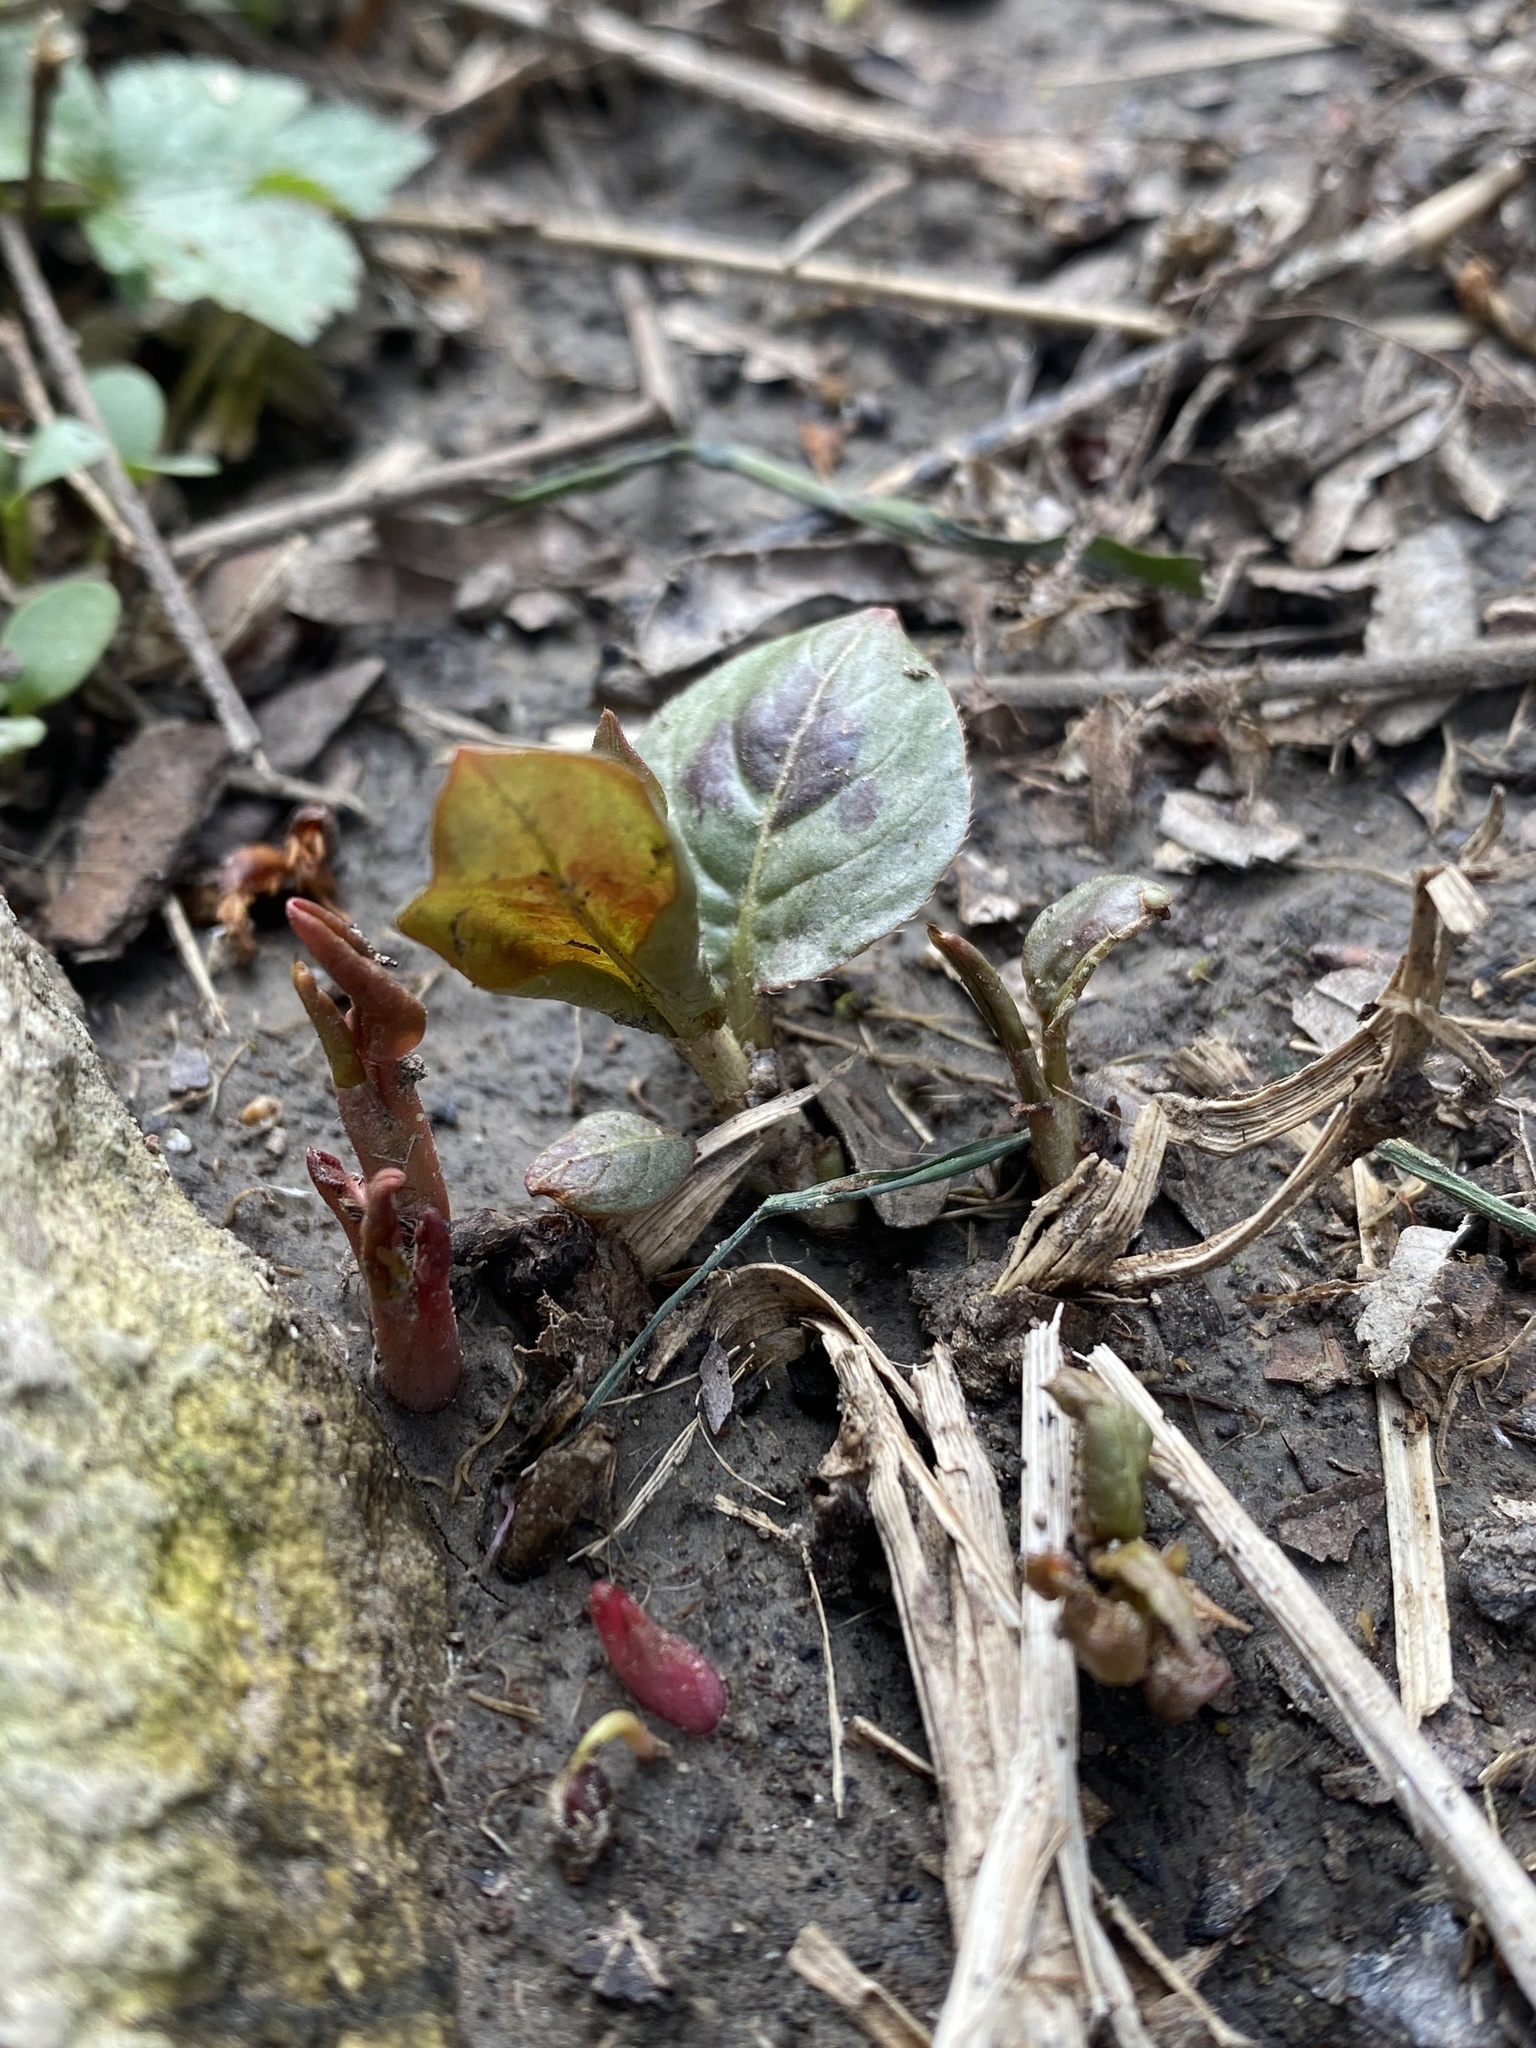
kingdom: Plantae
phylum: Tracheophyta
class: Magnoliopsida
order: Caryophyllales
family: Polygonaceae
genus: Persicaria
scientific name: Persicaria virginiana
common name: Jumpseed
